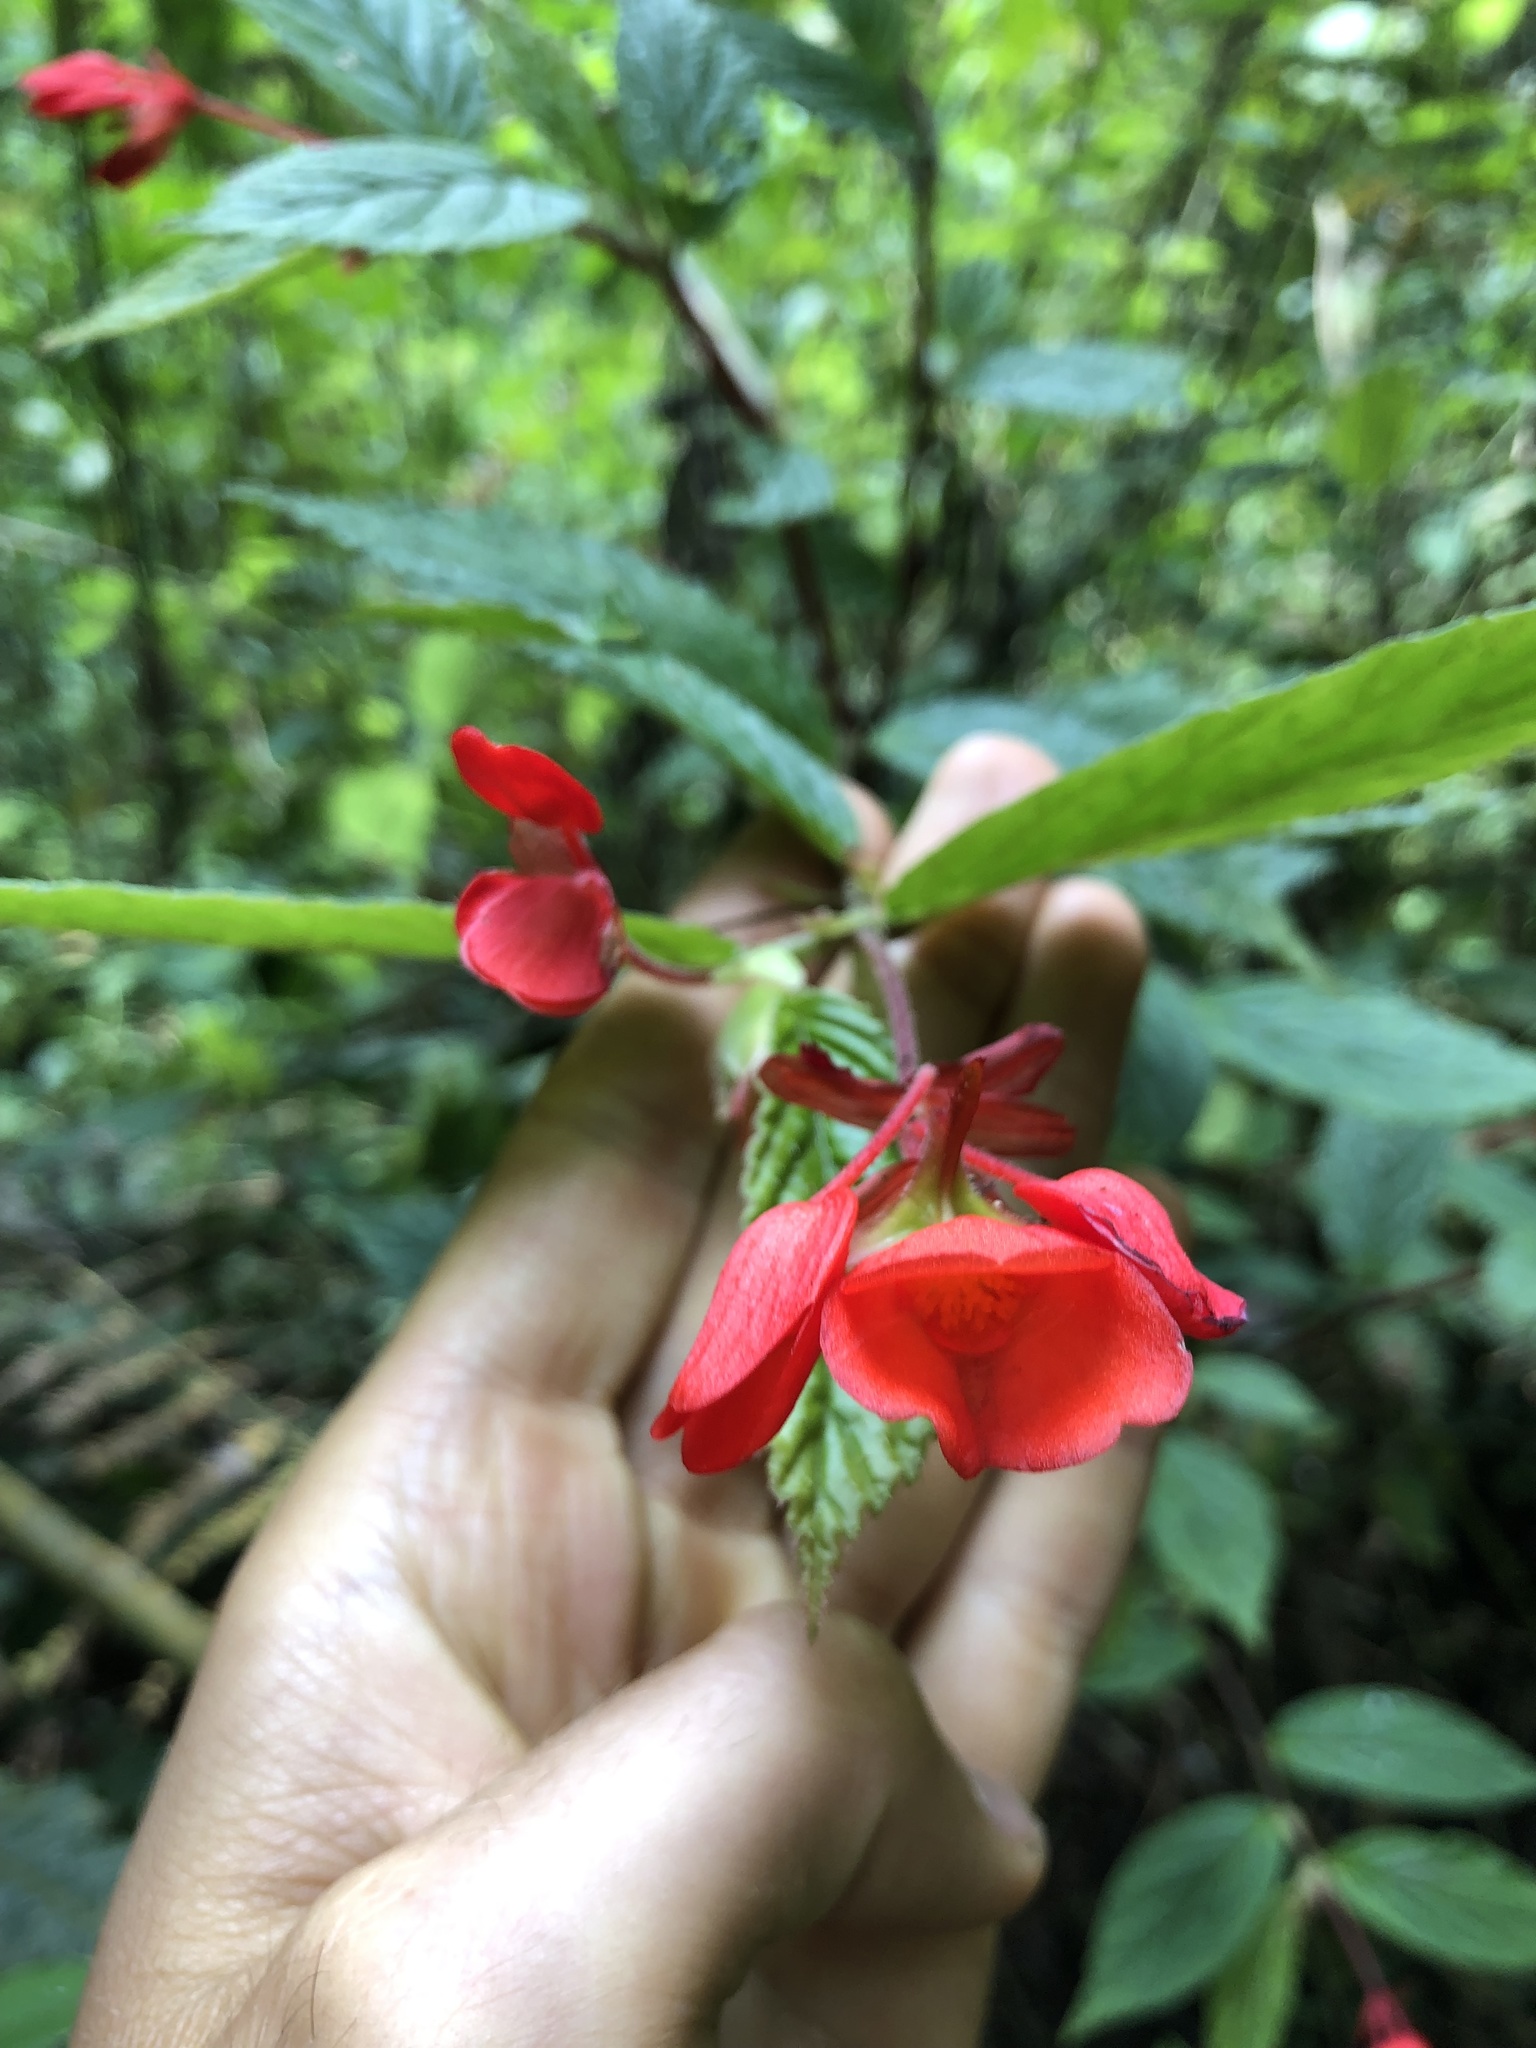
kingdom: Plantae
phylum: Tracheophyta
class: Magnoliopsida
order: Cucurbitales
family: Begoniaceae
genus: Begonia
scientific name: Begonia kalbreyeri
